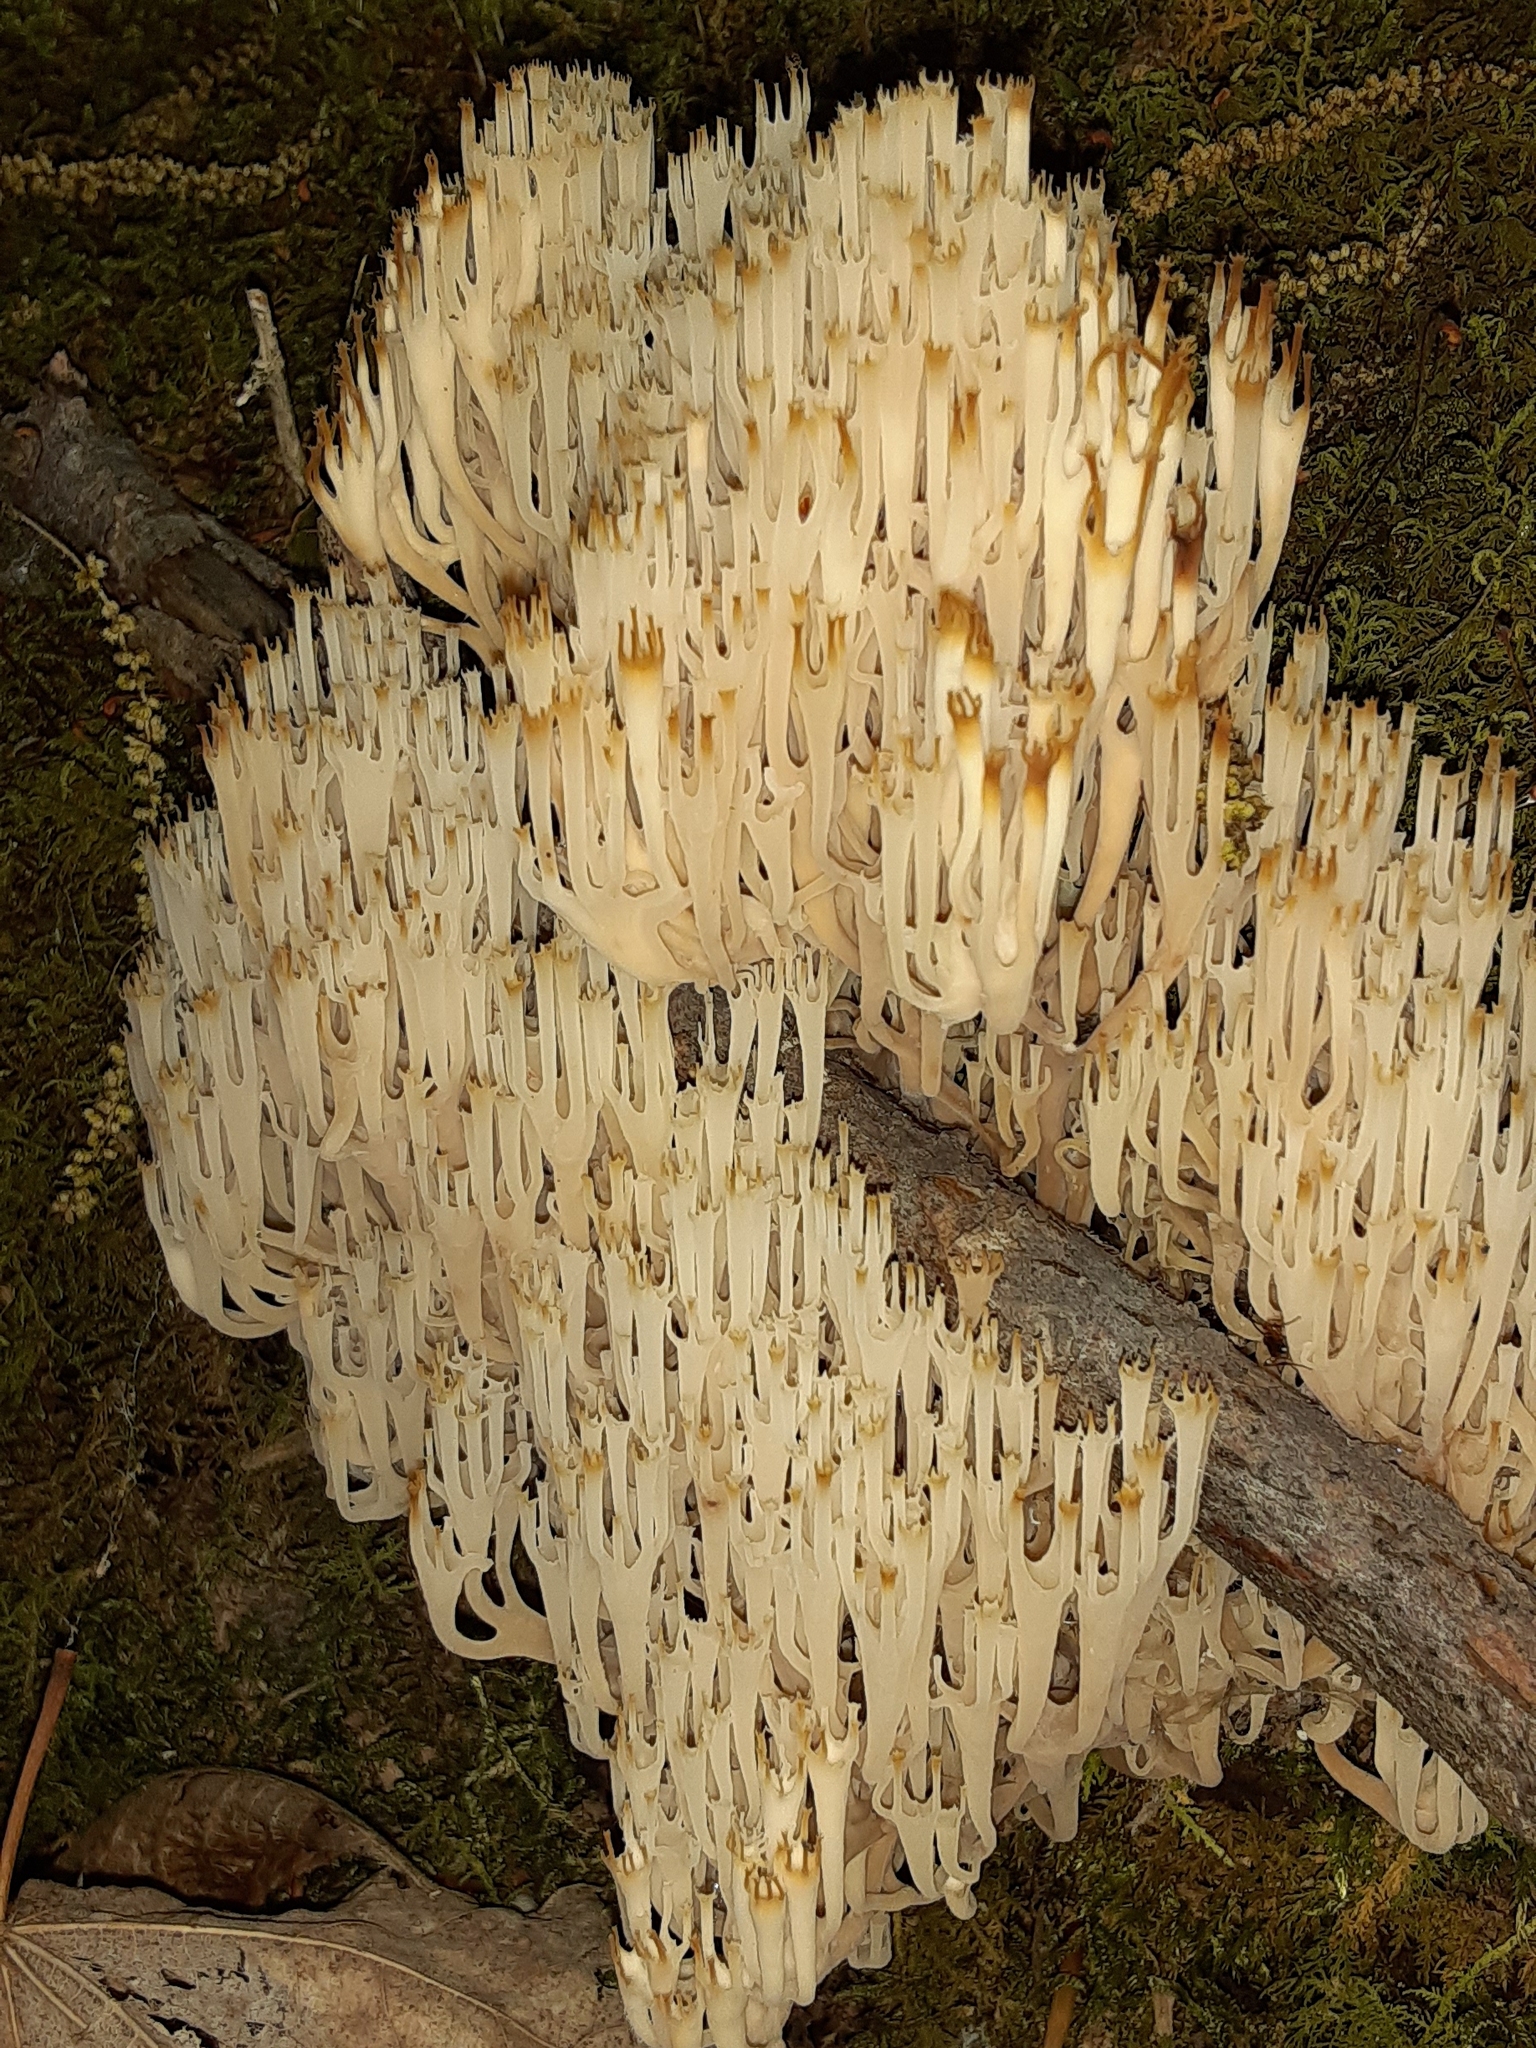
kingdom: Fungi
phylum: Basidiomycota
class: Agaricomycetes
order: Russulales
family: Auriscalpiaceae
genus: Artomyces
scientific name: Artomyces pyxidatus
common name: Crown-tipped coral fungus
